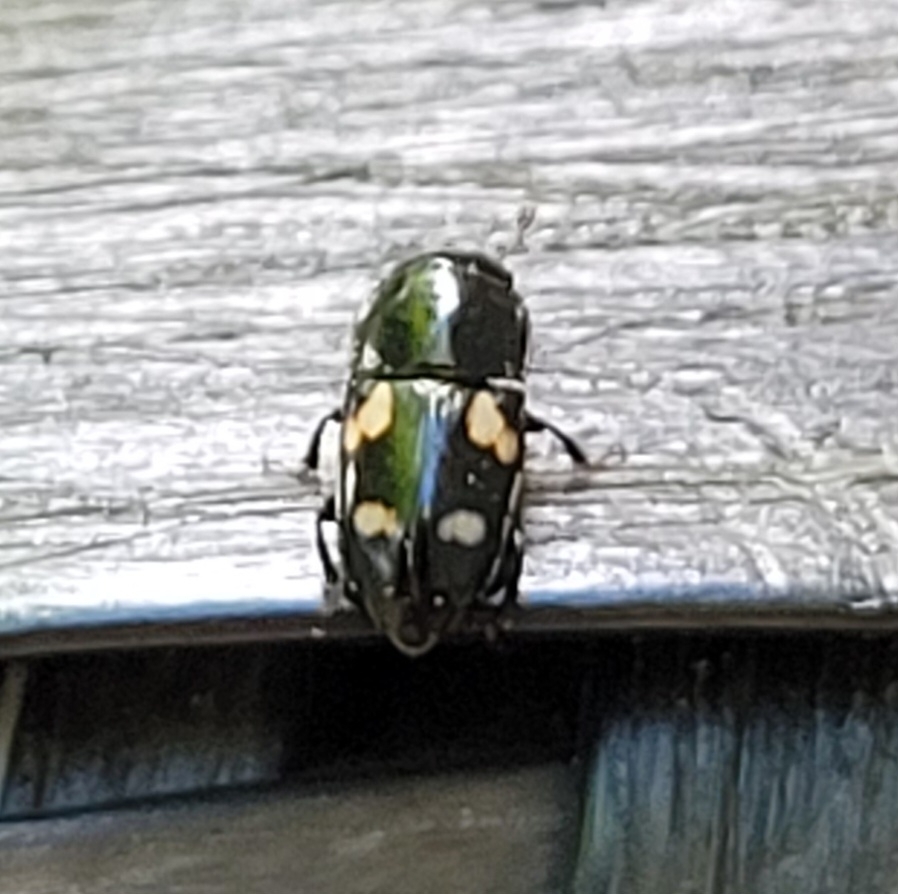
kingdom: Animalia
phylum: Arthropoda
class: Insecta
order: Coleoptera
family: Nitidulidae
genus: Glischrochilus
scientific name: Glischrochilus quadrisignatus
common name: Picnic beetle
